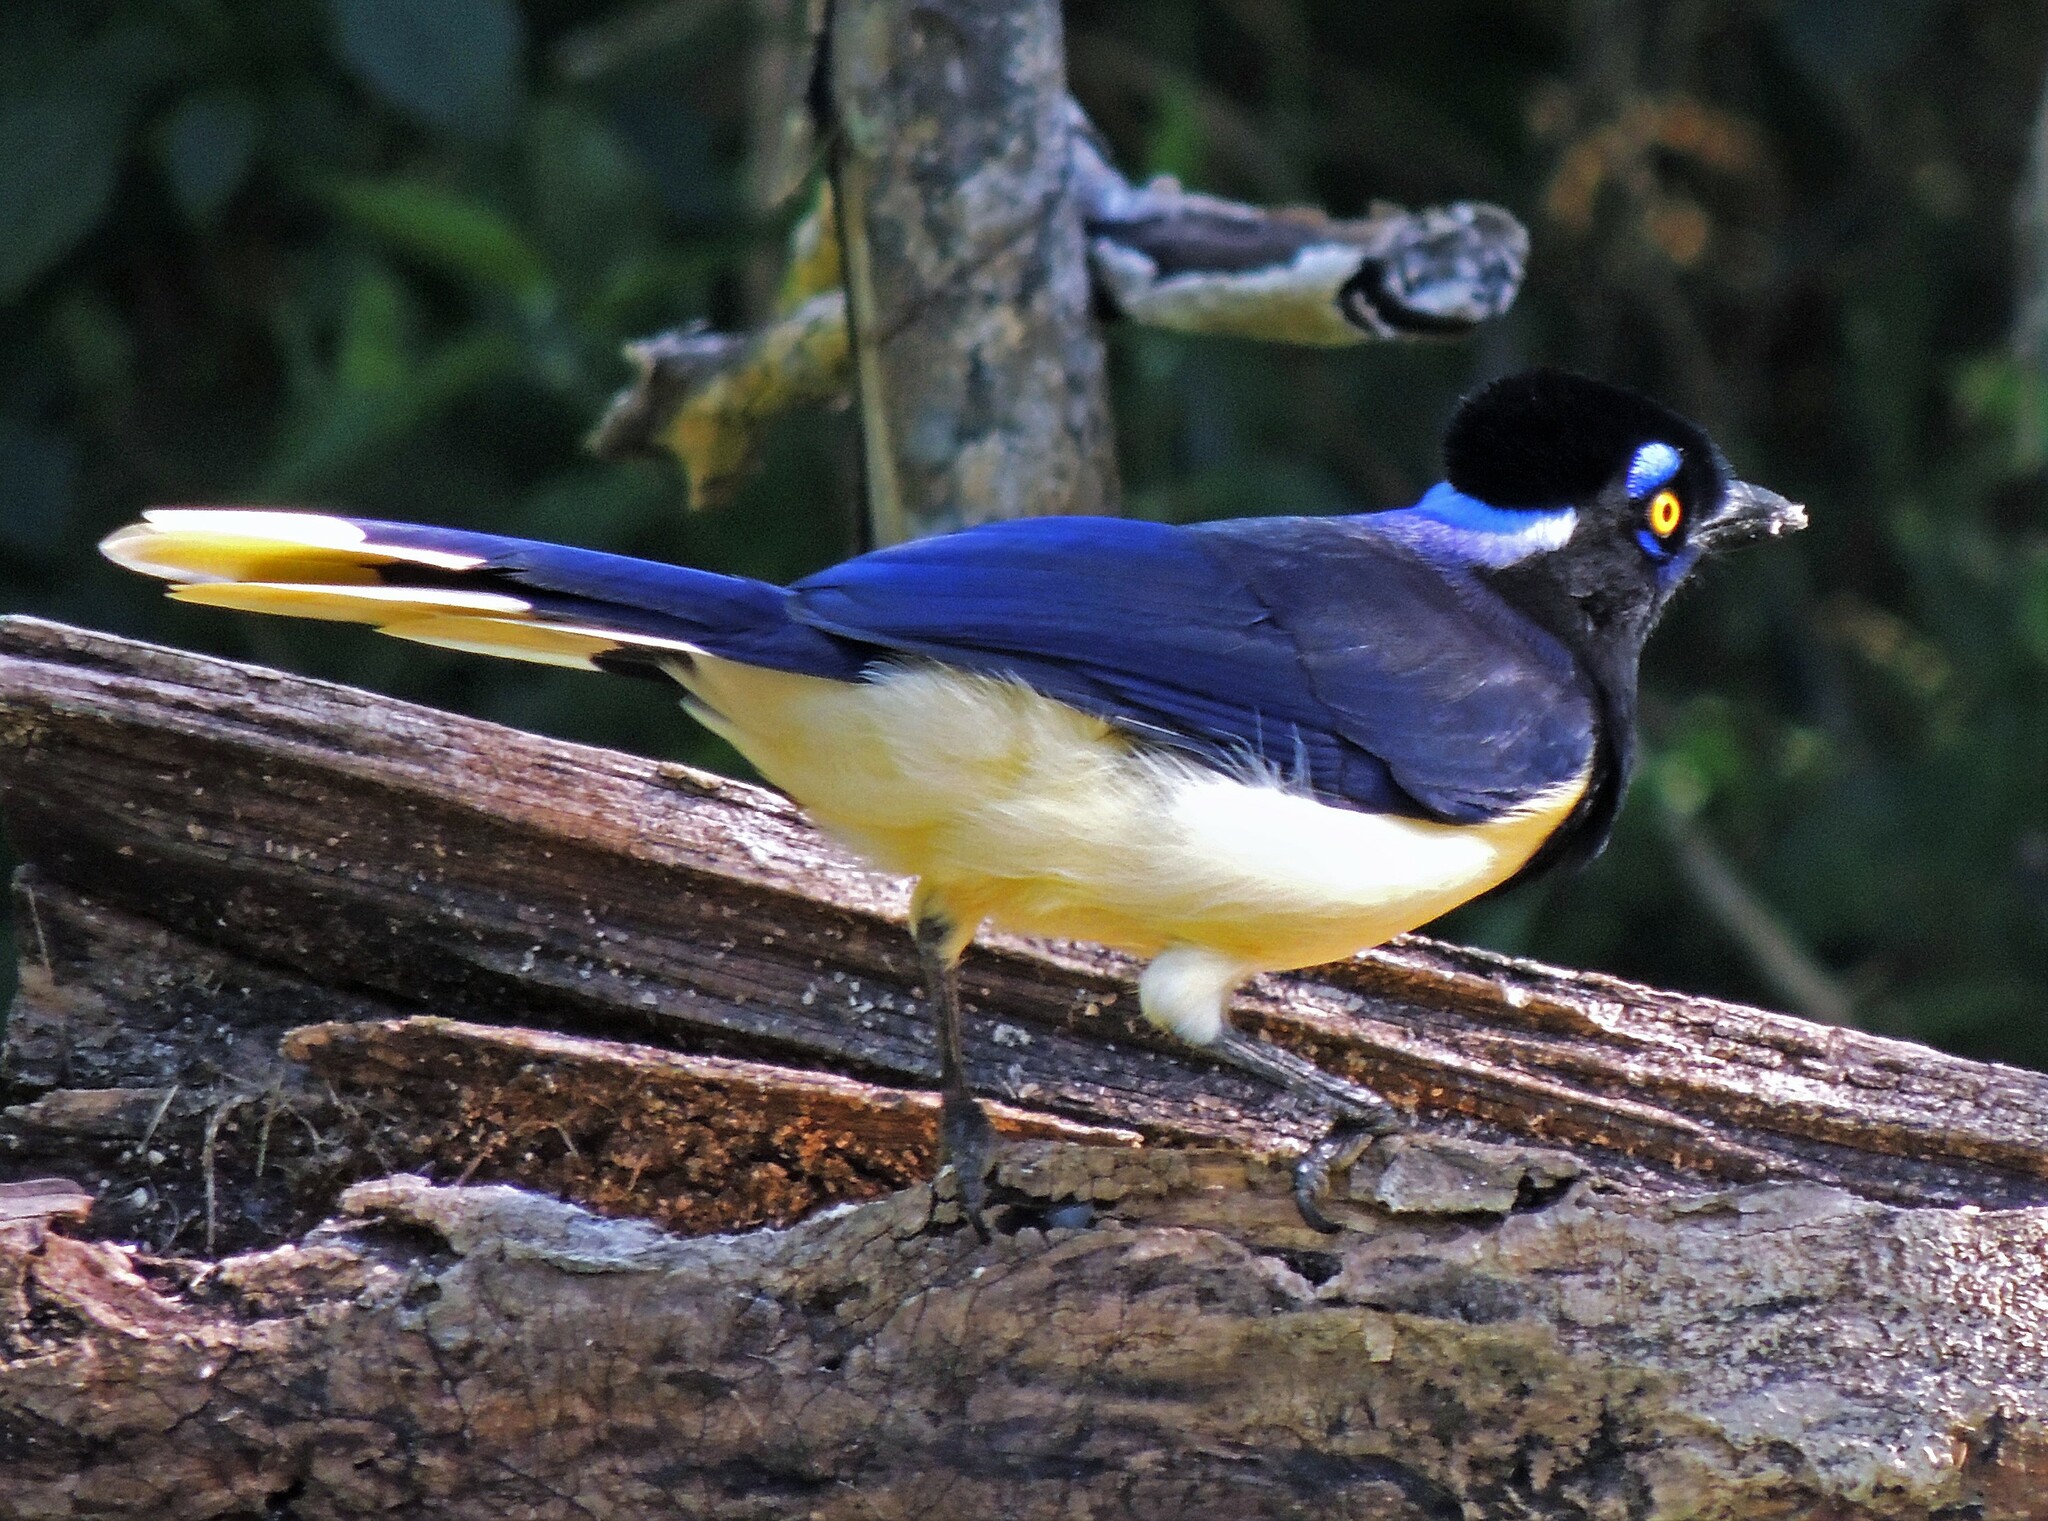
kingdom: Animalia
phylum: Chordata
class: Aves
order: Passeriformes
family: Corvidae
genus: Cyanocorax
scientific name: Cyanocorax chrysops
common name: Plush-crested jay
